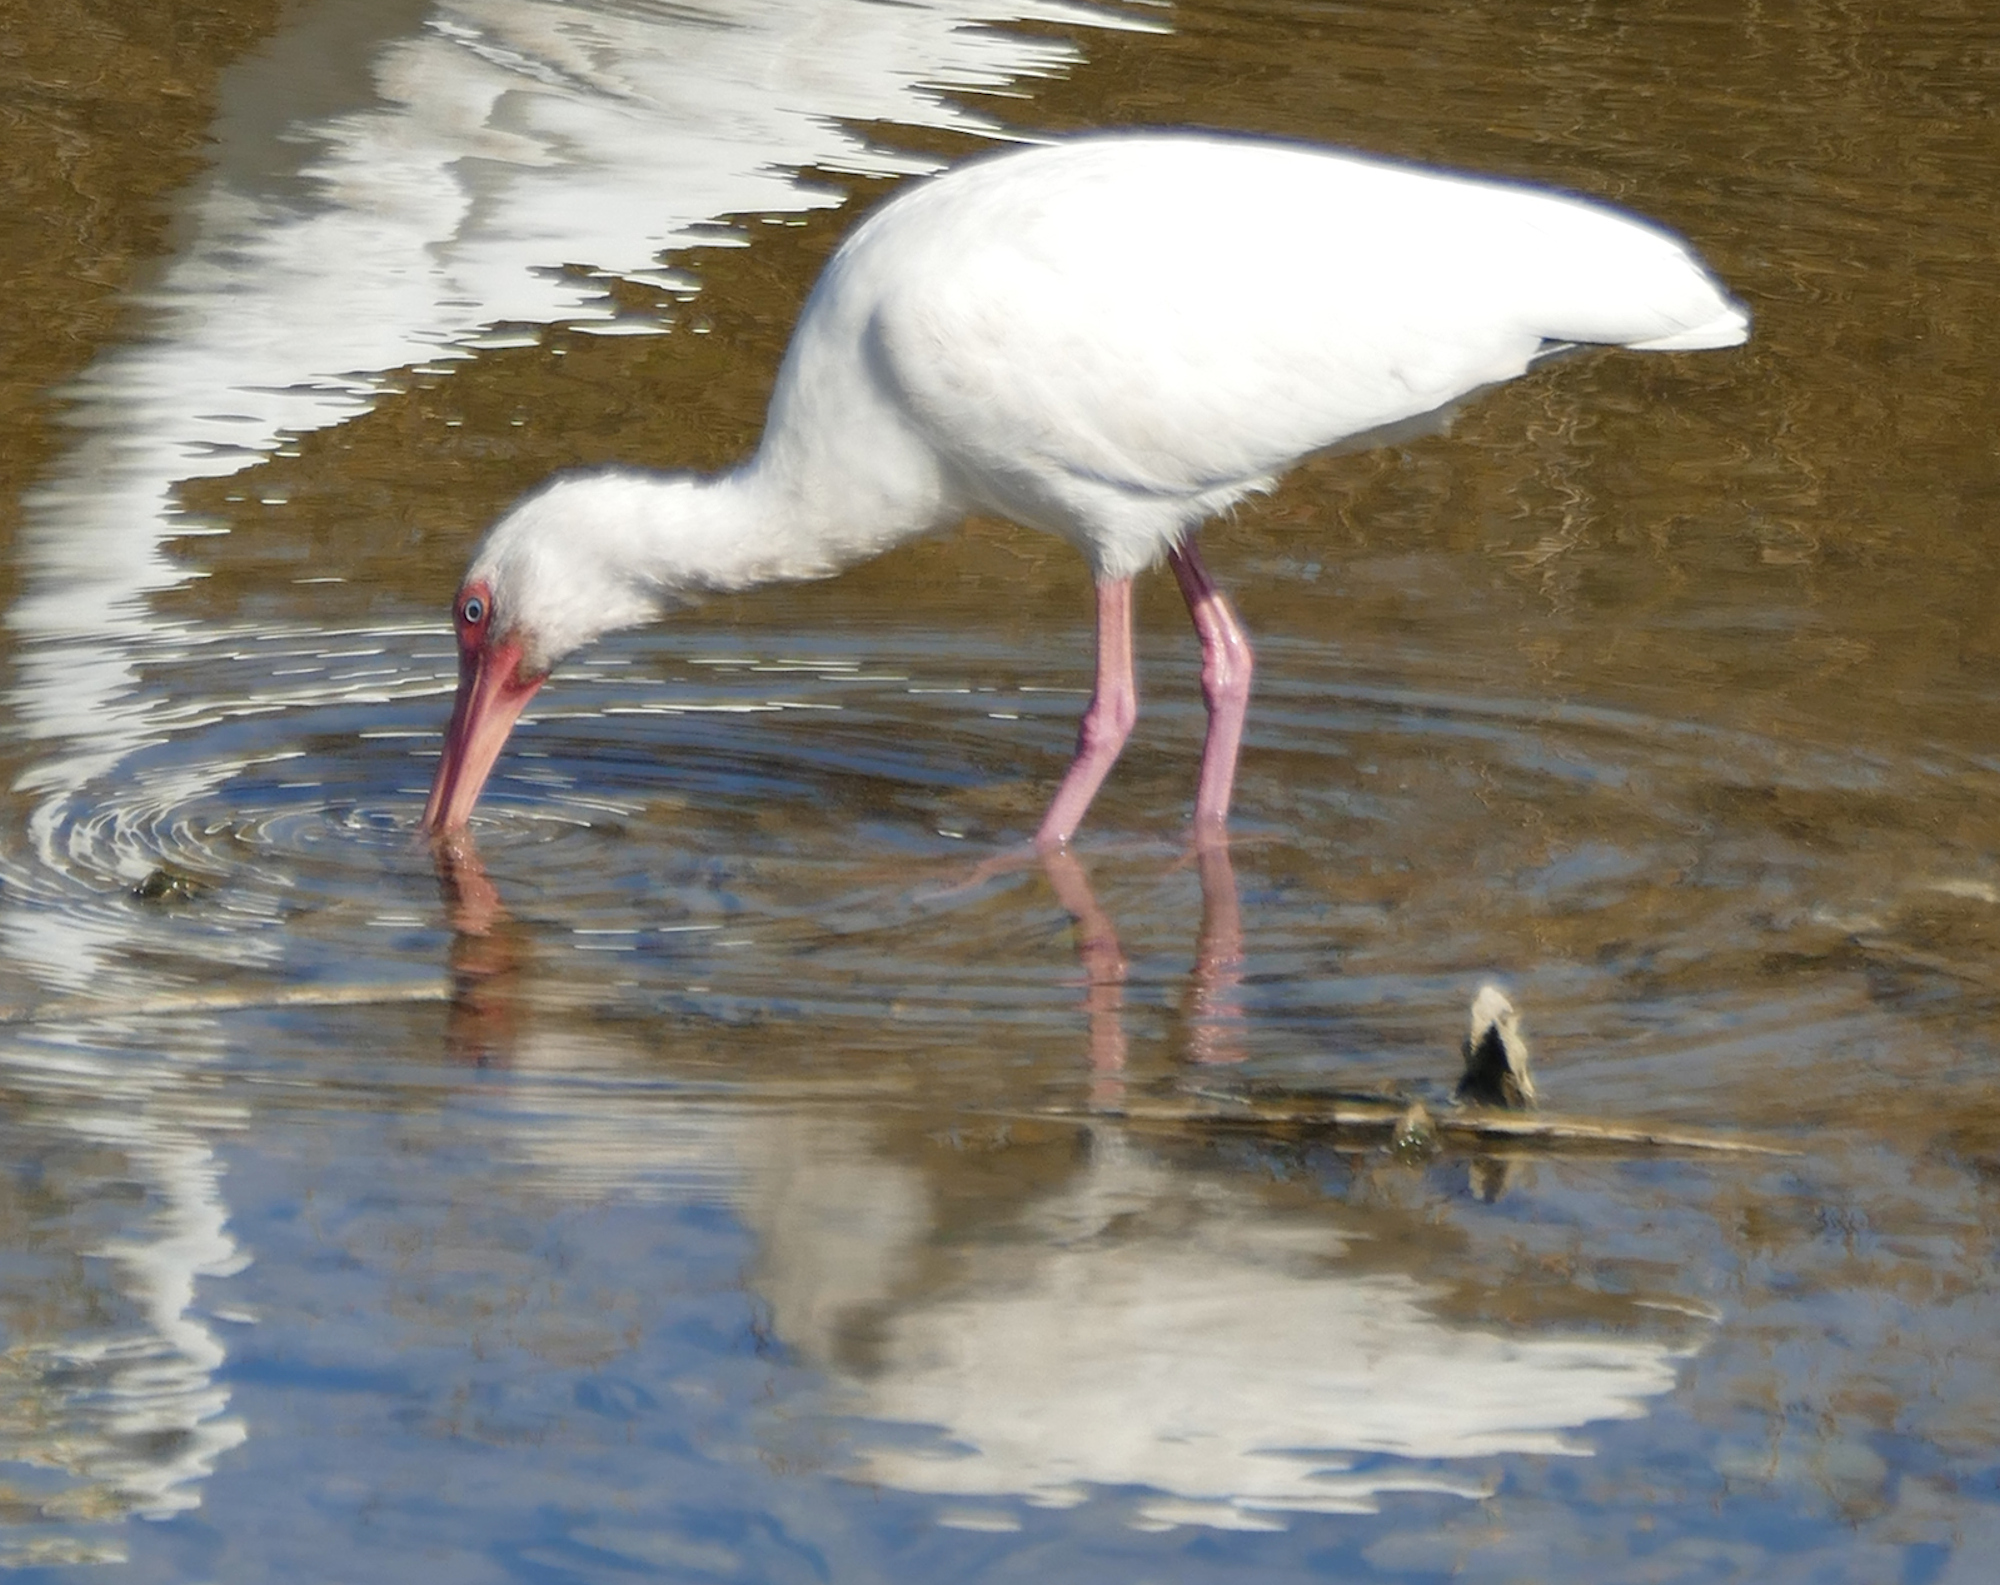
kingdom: Animalia
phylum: Chordata
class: Aves
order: Pelecaniformes
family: Threskiornithidae
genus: Eudocimus
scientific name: Eudocimus albus
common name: White ibis
